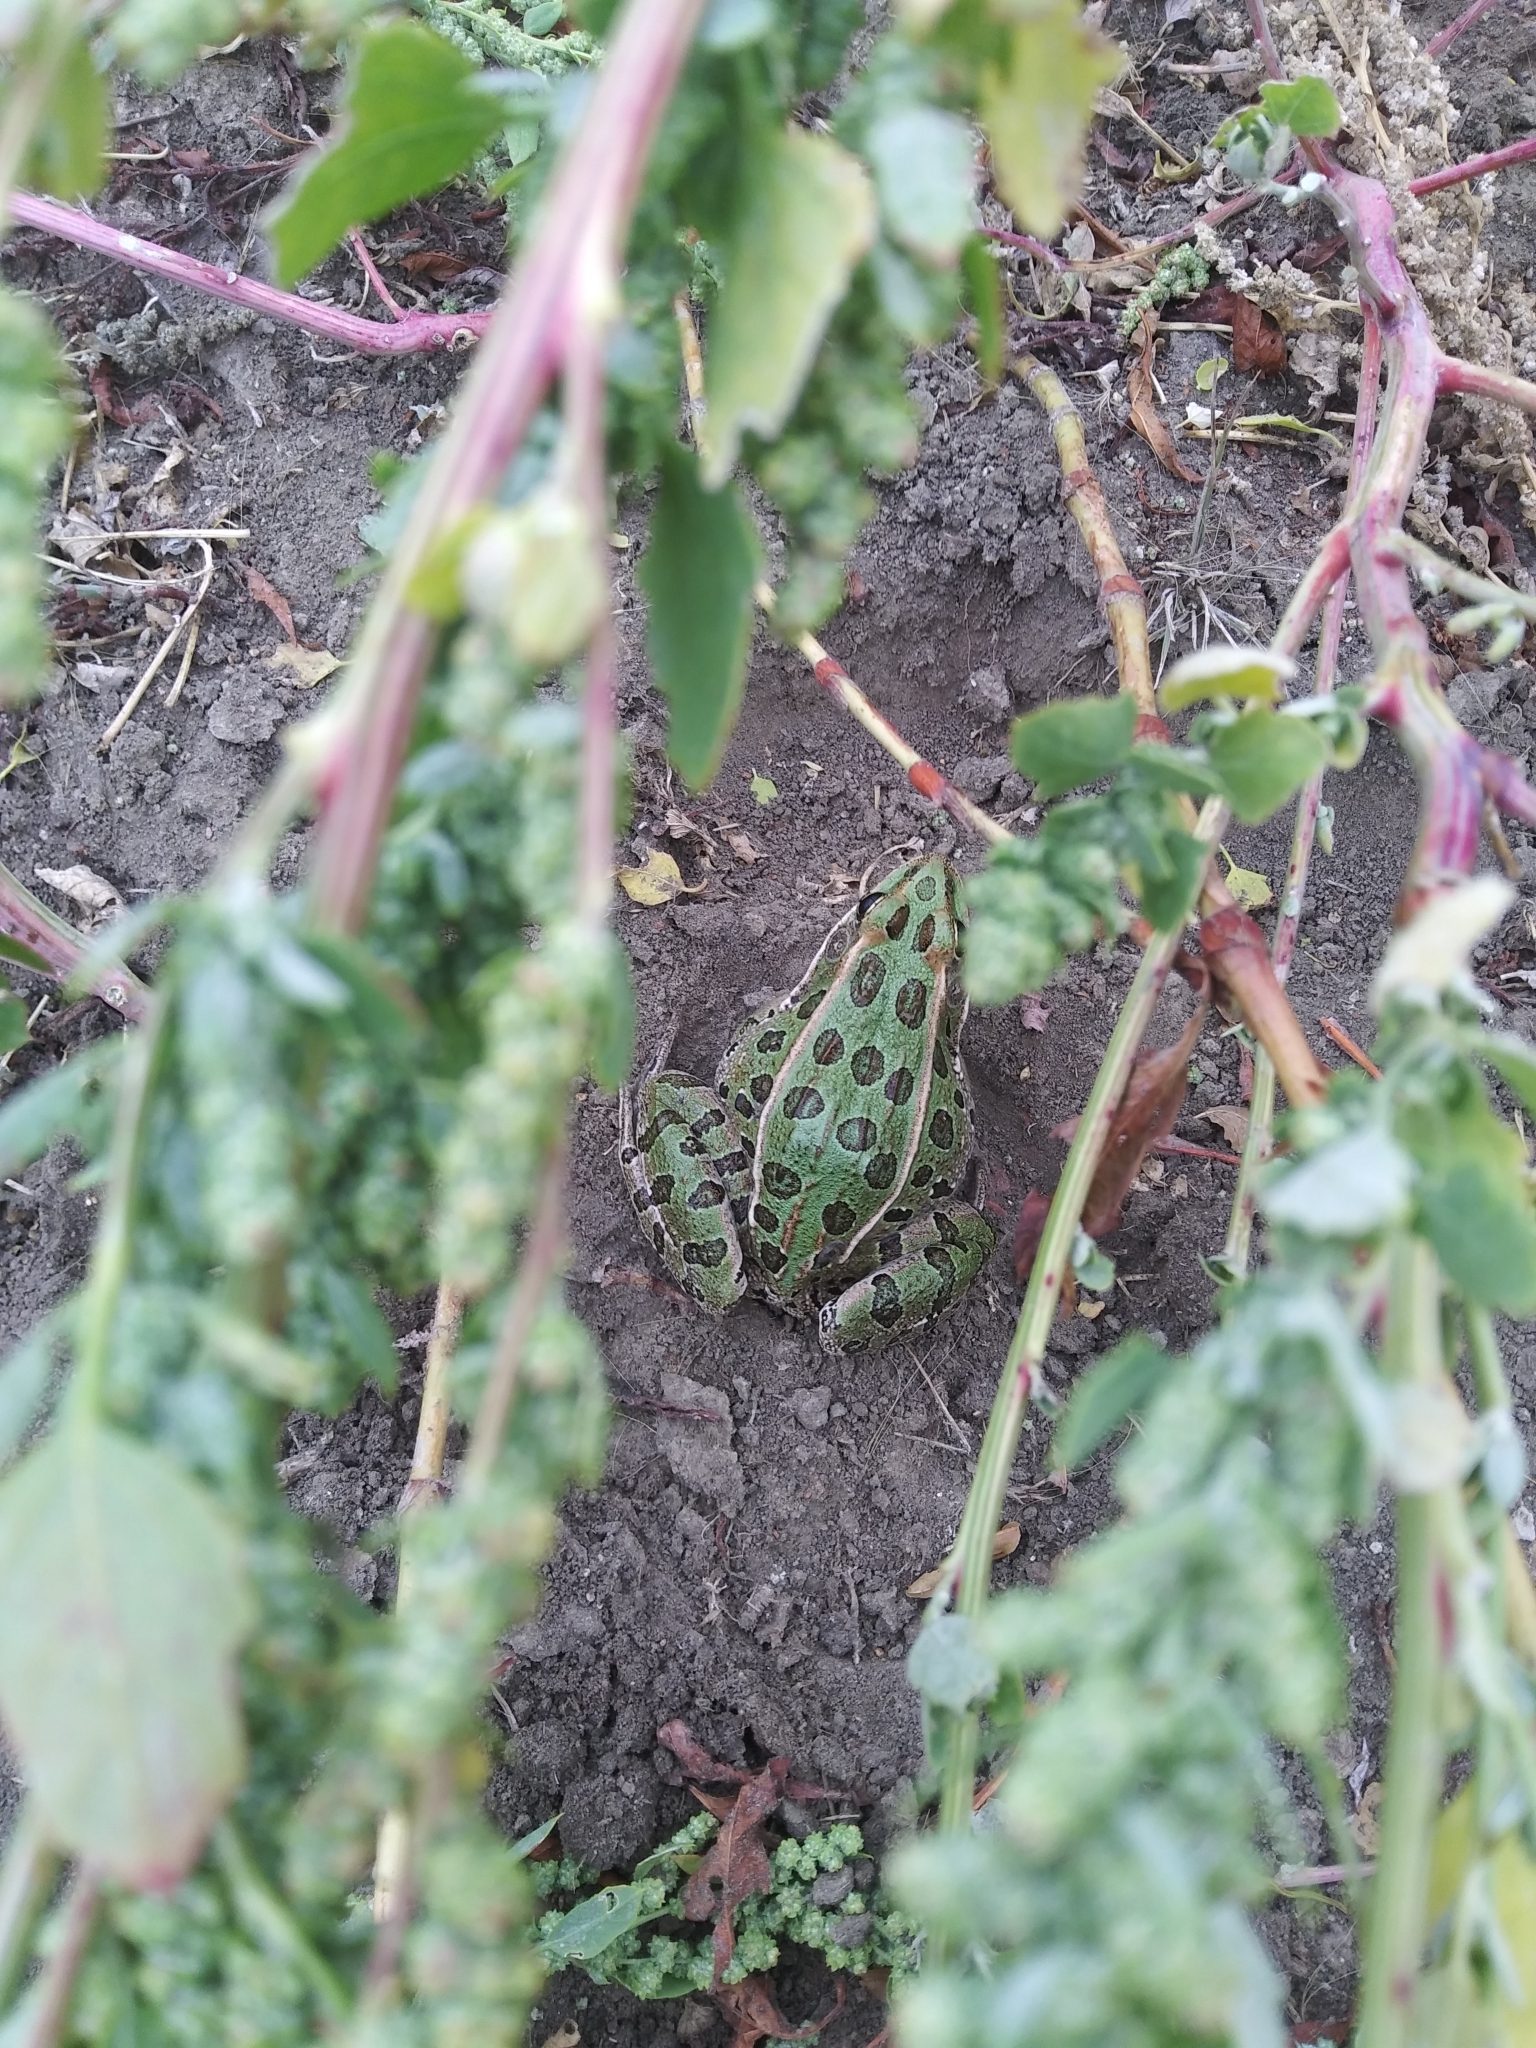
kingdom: Animalia
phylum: Chordata
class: Amphibia
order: Anura
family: Ranidae
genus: Lithobates
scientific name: Lithobates pipiens
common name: Northern leopard frog
